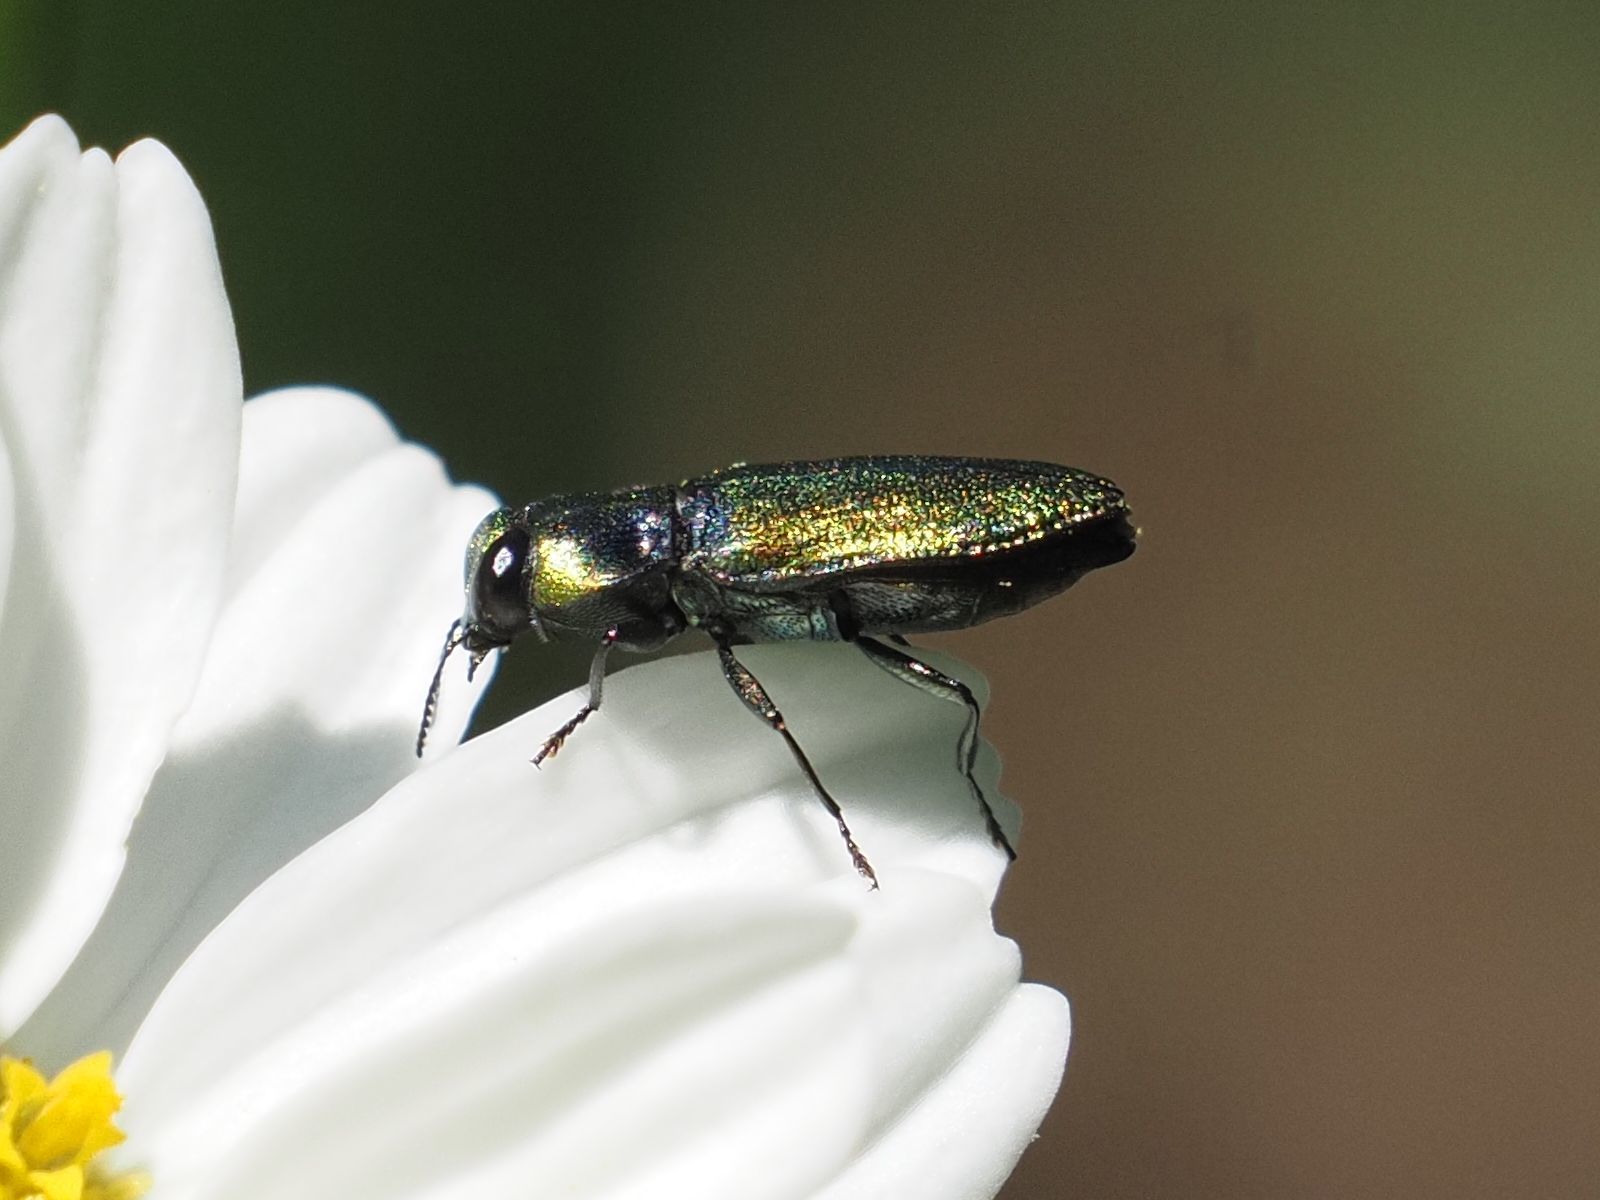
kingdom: Animalia
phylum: Arthropoda
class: Insecta
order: Coleoptera
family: Buprestidae
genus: Anthaxia
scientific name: Anthaxia fulgurans
